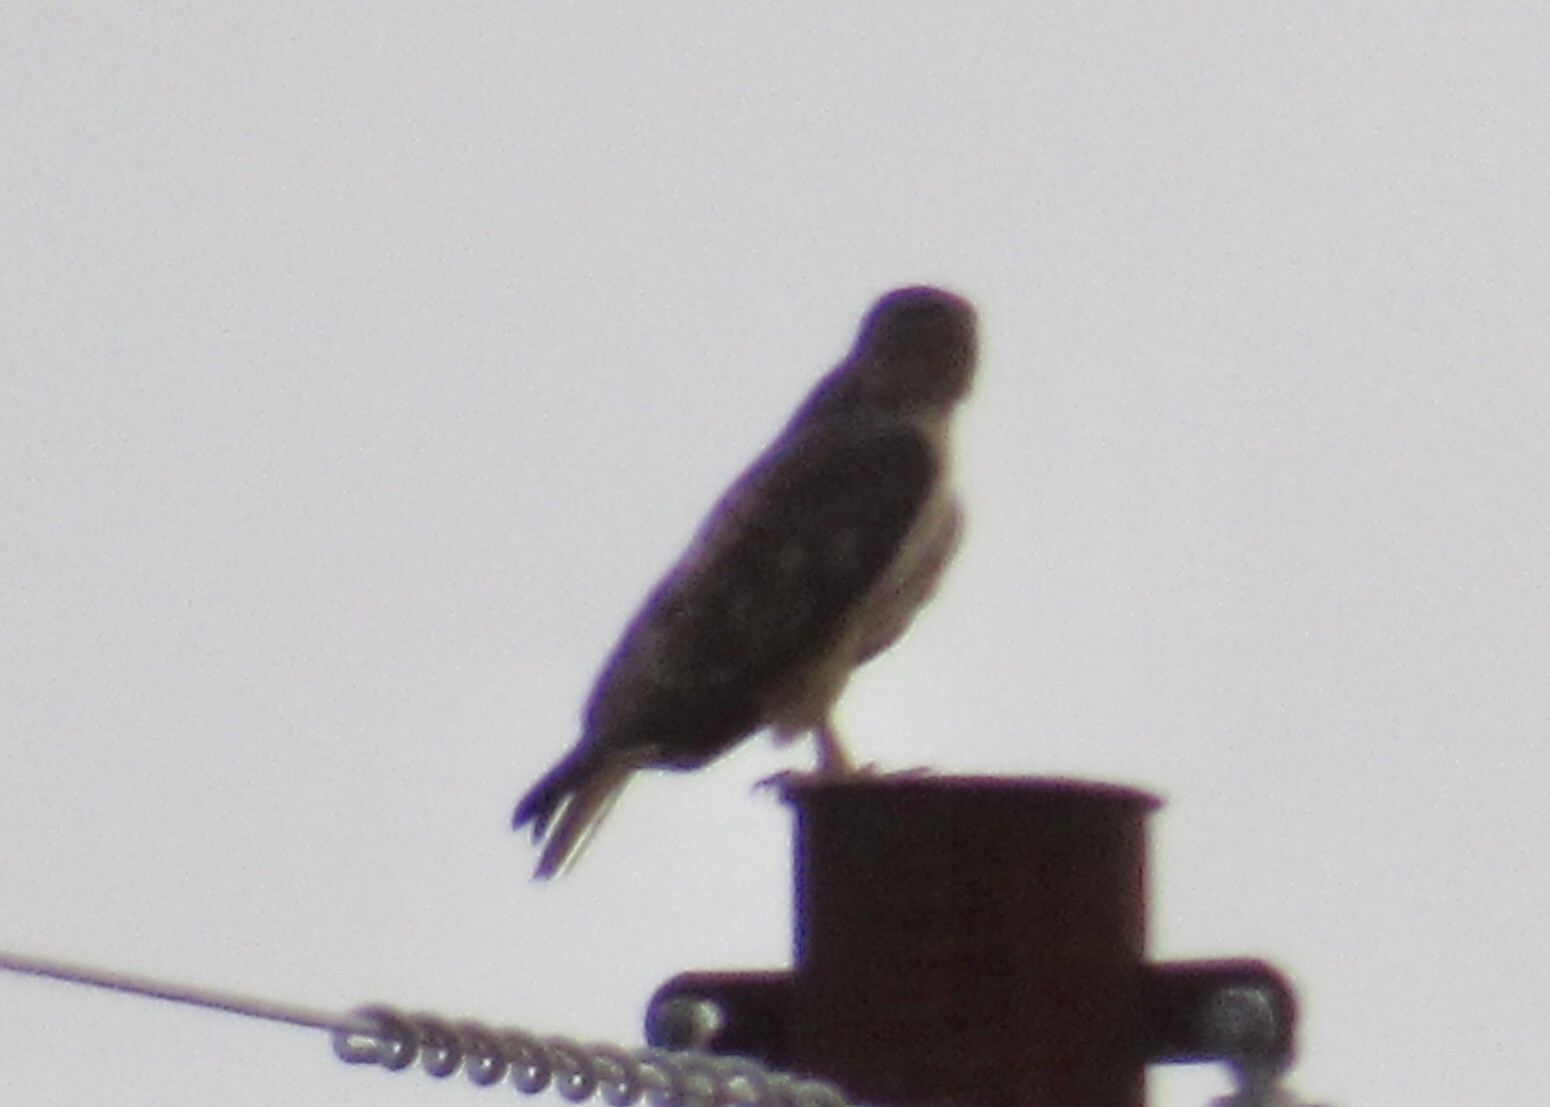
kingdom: Animalia
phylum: Chordata
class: Aves
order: Accipitriformes
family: Accipitridae
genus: Buteo
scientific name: Buteo jamaicensis
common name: Red-tailed hawk
